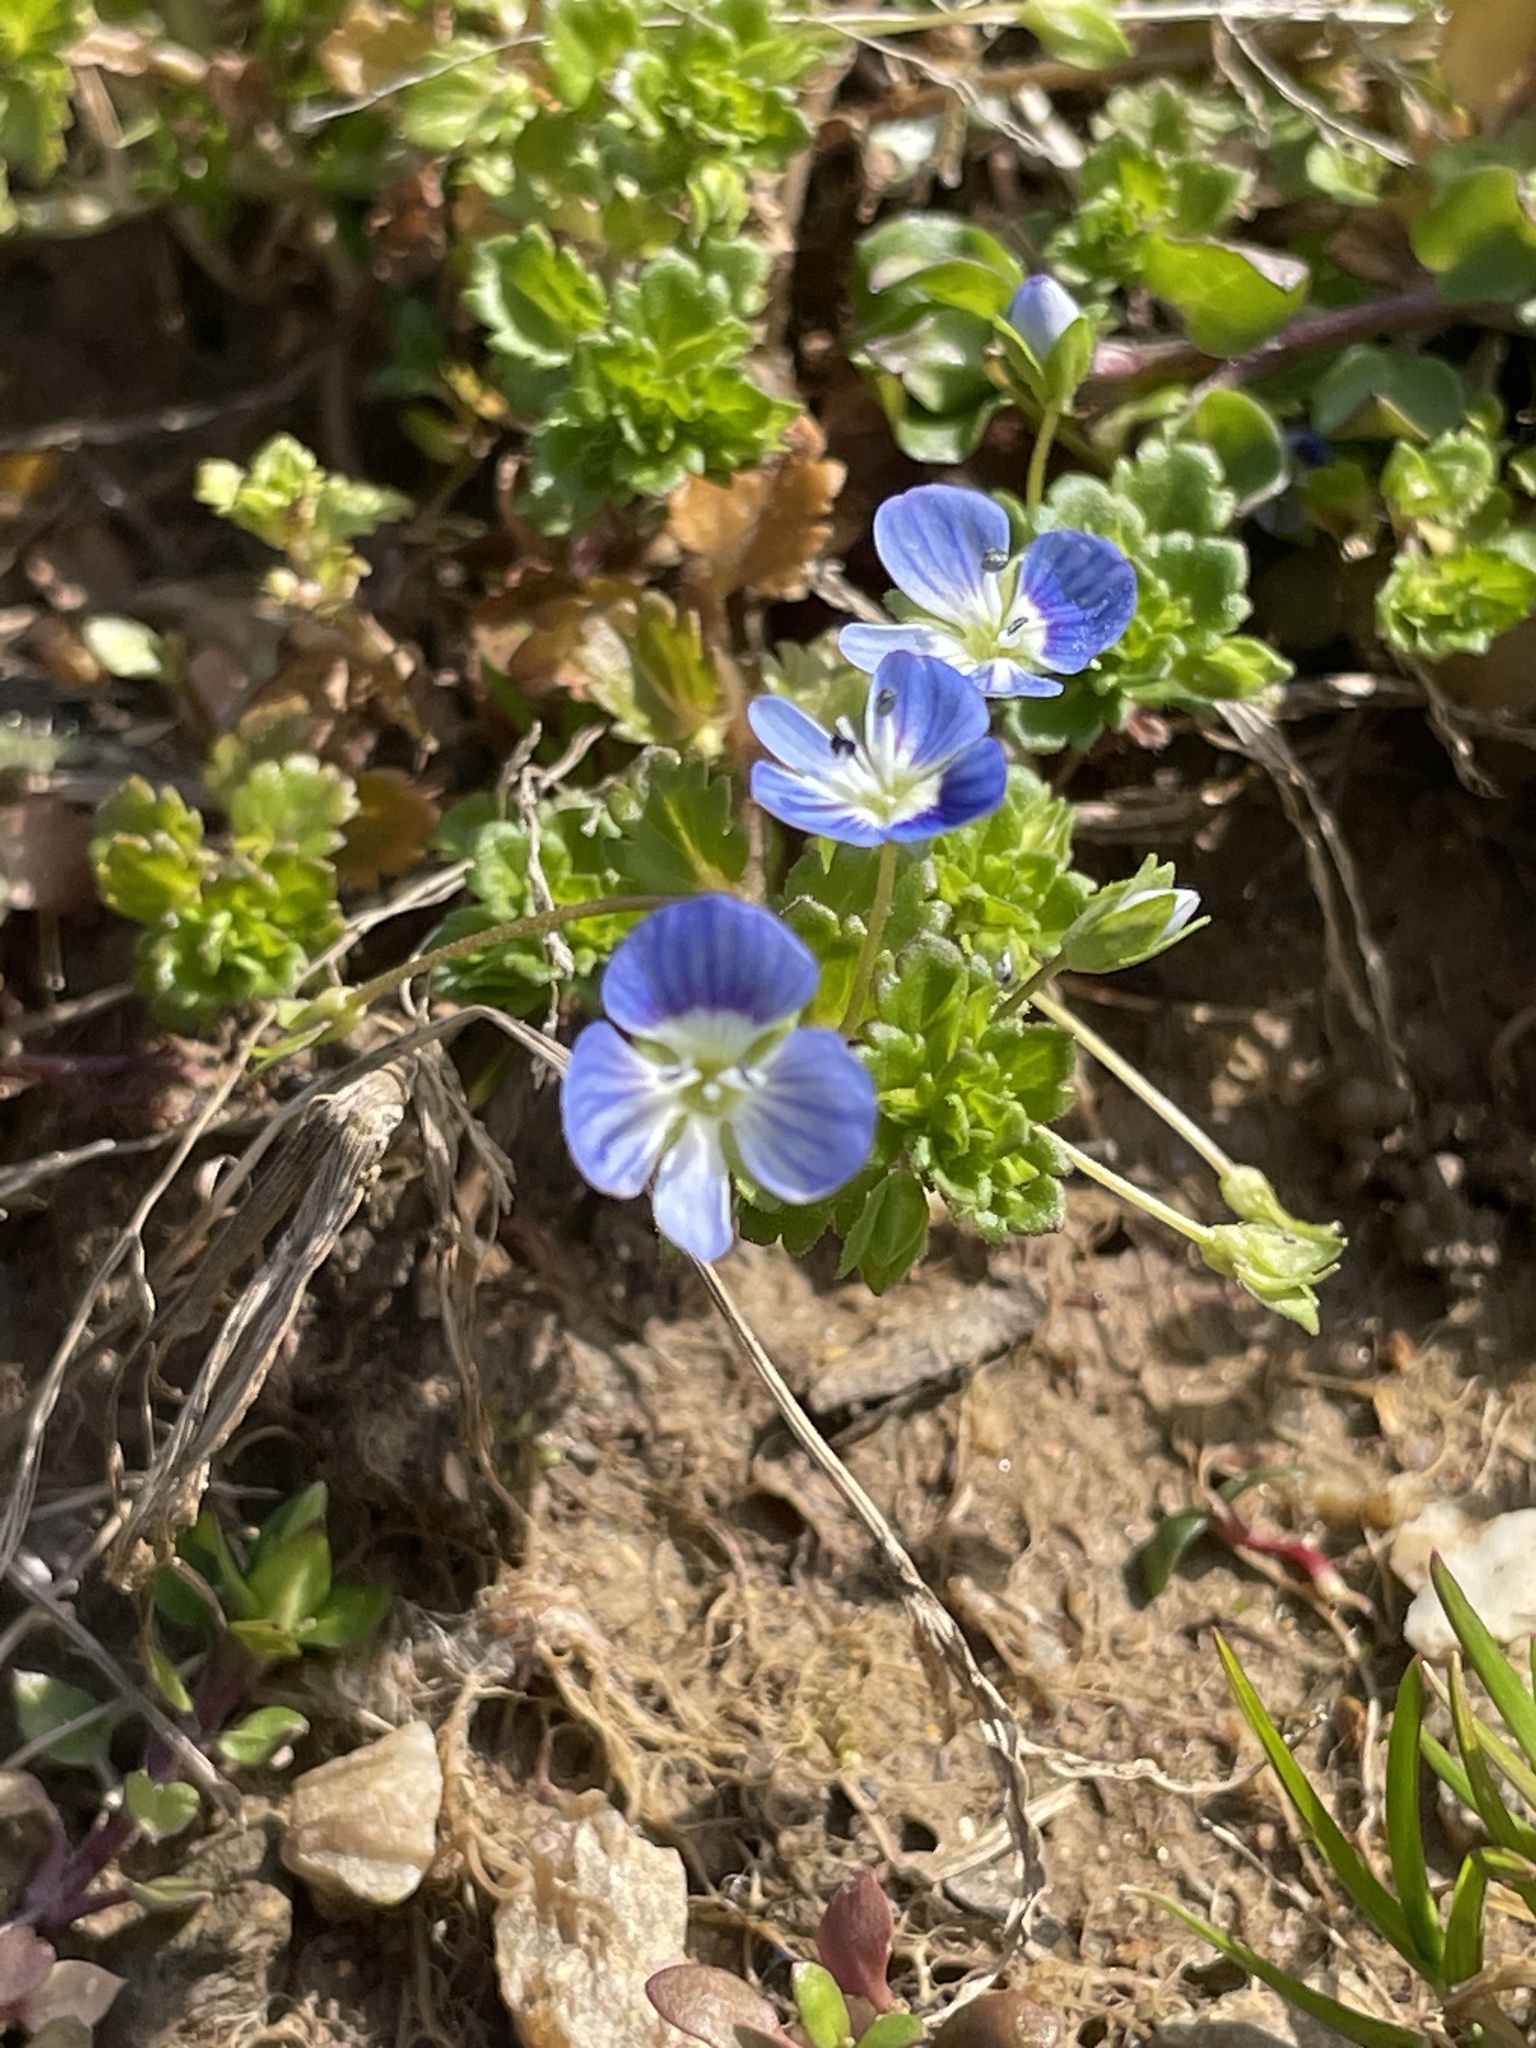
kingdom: Plantae
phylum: Tracheophyta
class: Magnoliopsida
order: Lamiales
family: Plantaginaceae
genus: Veronica
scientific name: Veronica persica
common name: Common field-speedwell
